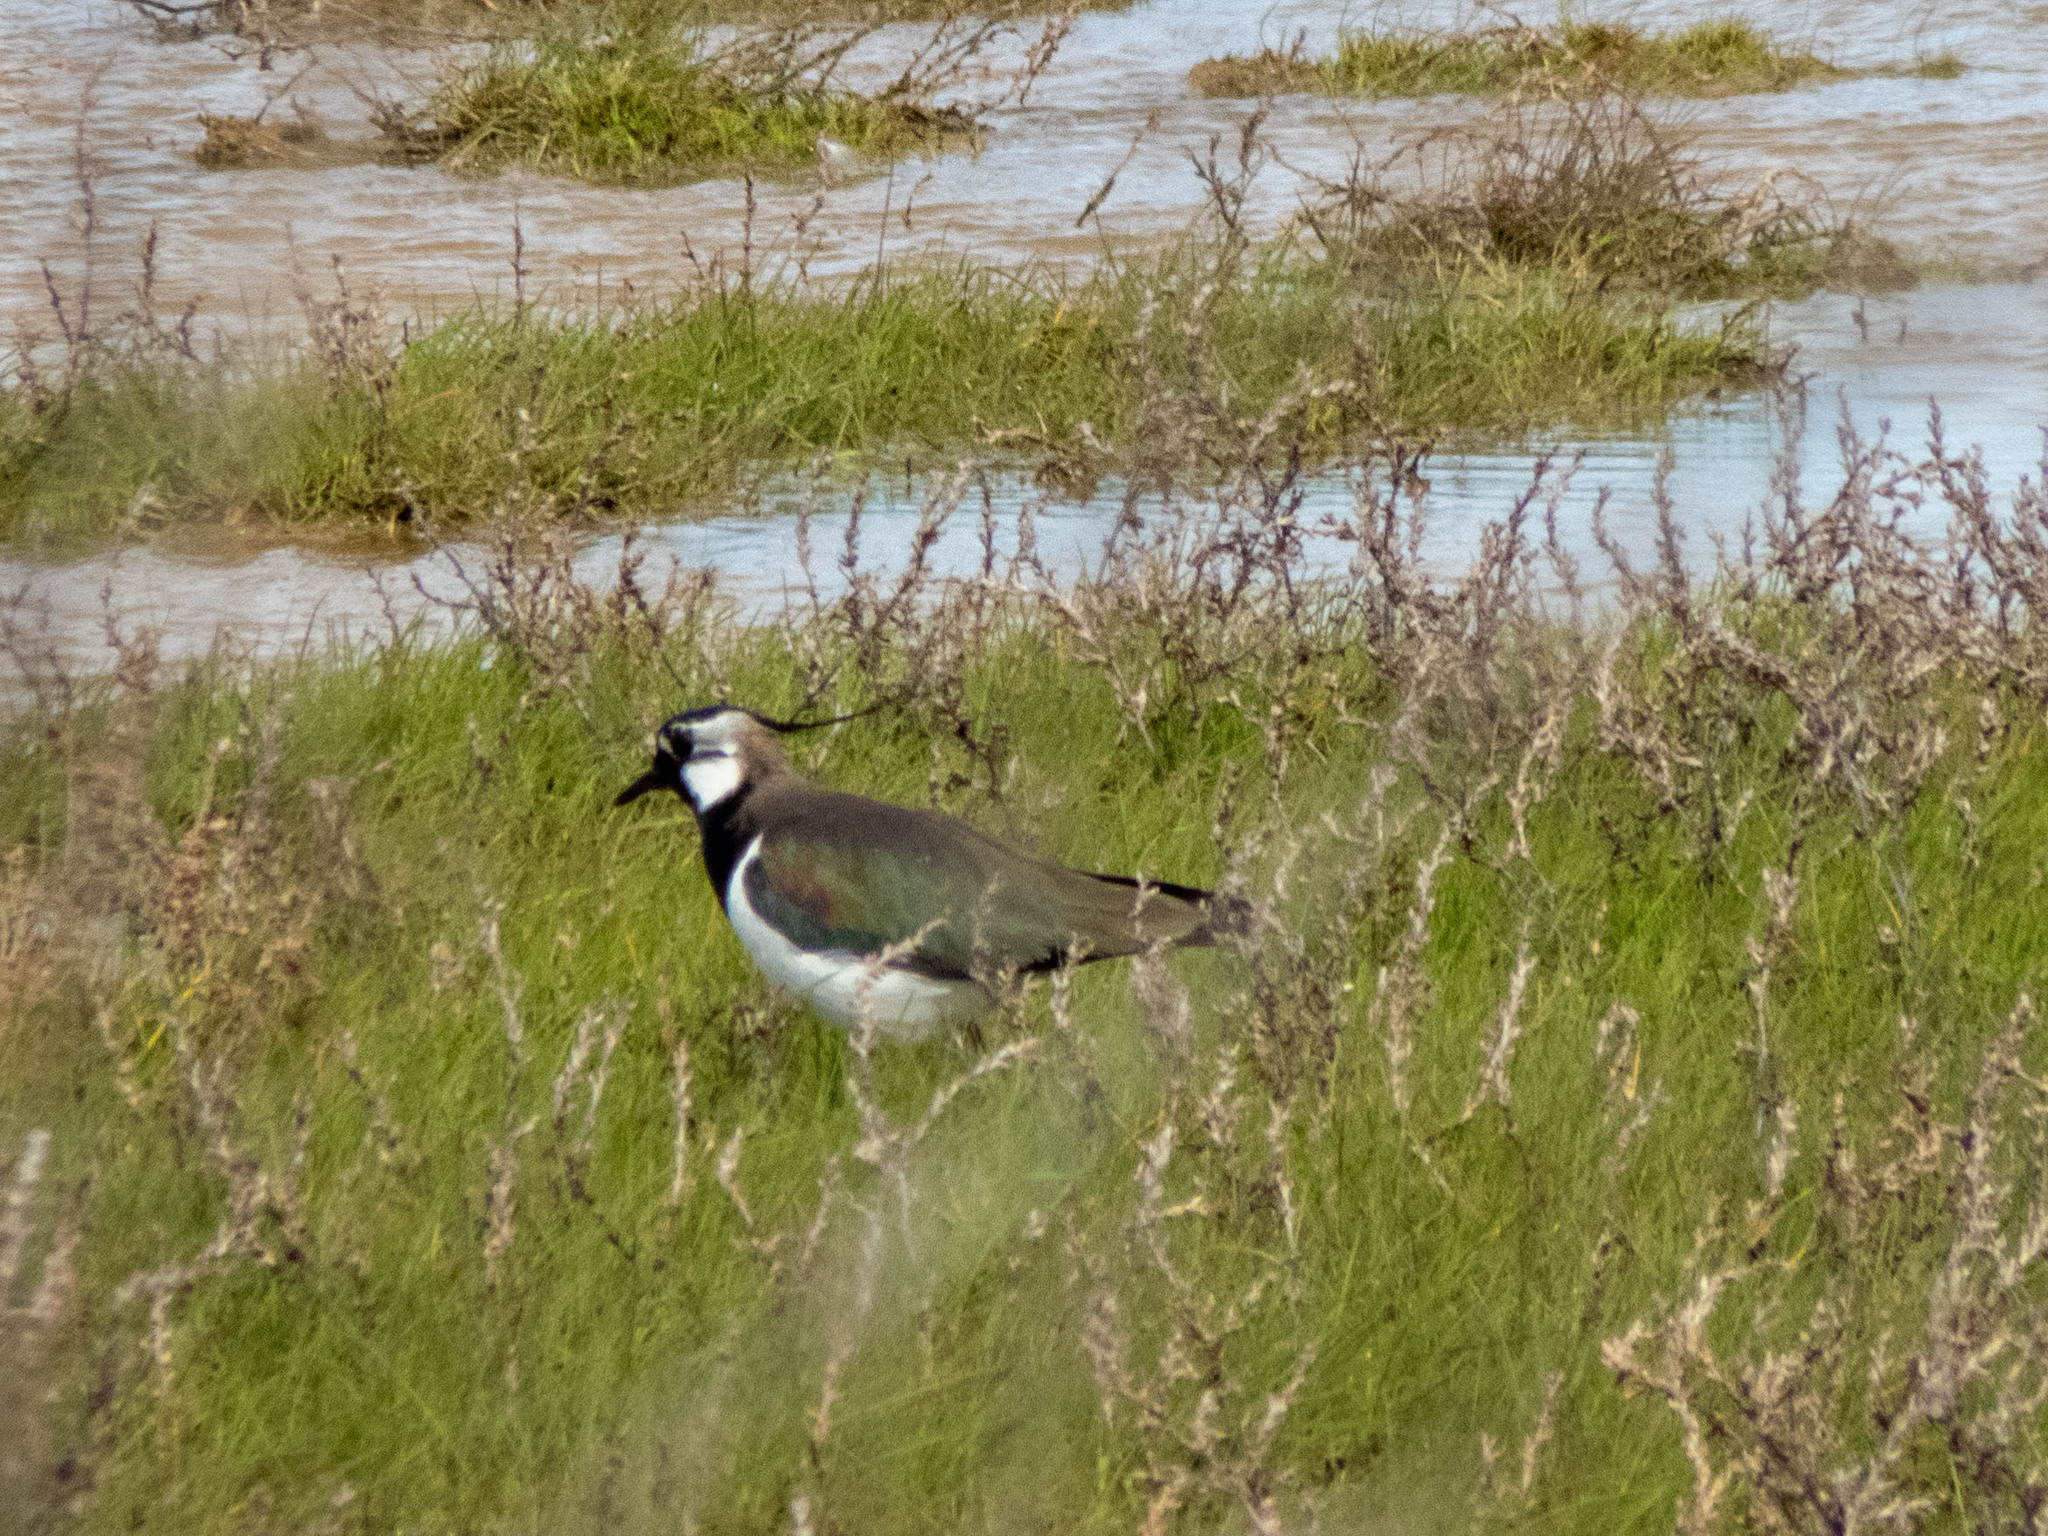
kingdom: Animalia
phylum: Chordata
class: Aves
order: Charadriiformes
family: Charadriidae
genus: Vanellus
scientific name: Vanellus vanellus
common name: Northern lapwing
